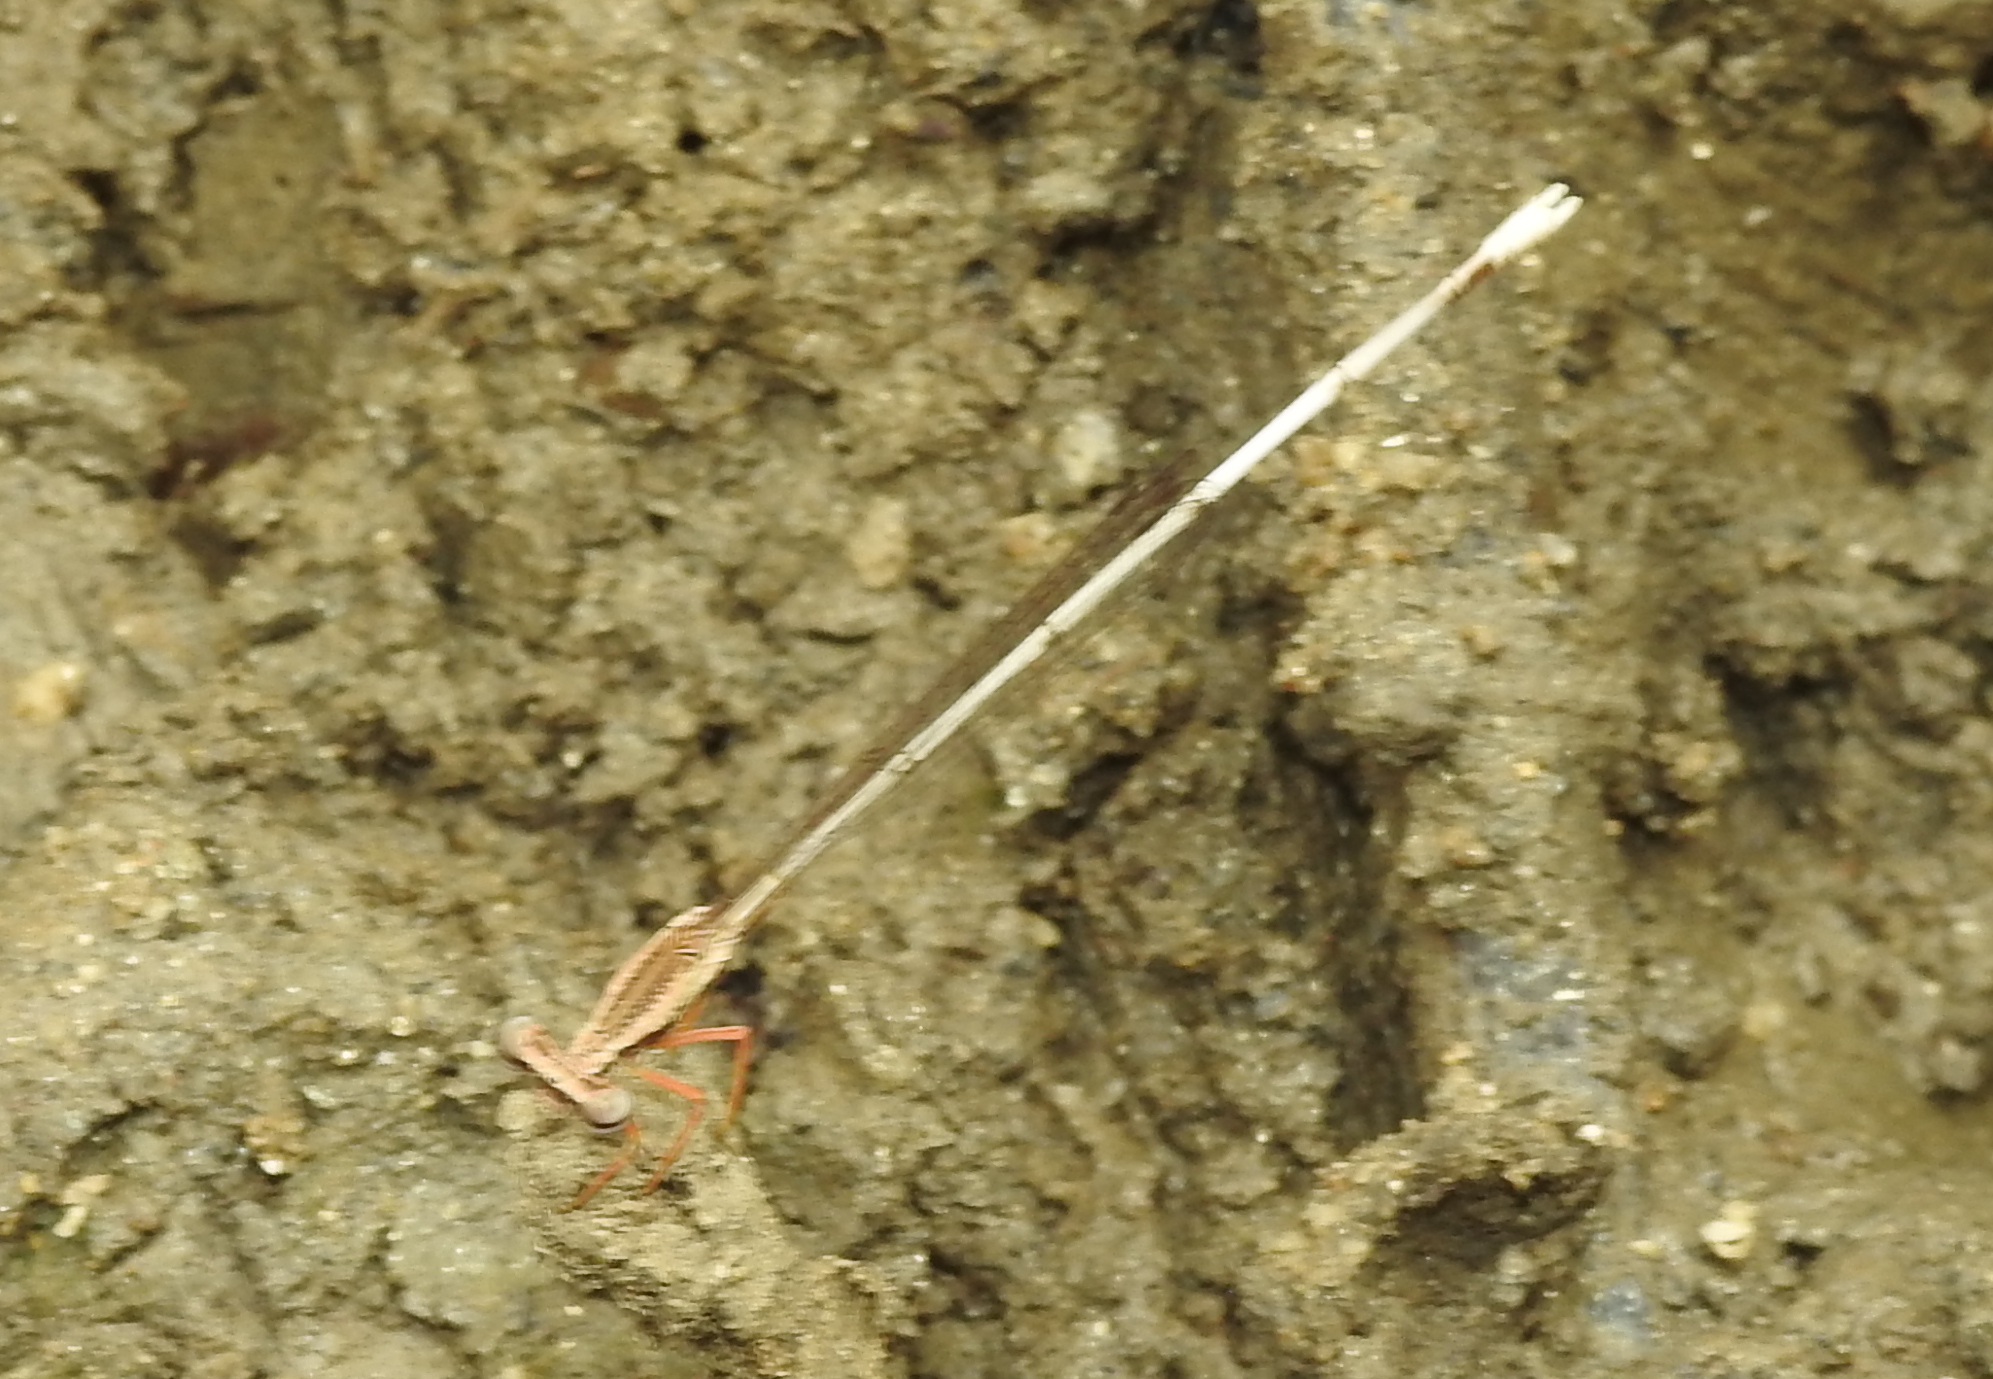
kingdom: Animalia
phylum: Arthropoda
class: Insecta
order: Odonata
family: Platycnemididae
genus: Copera
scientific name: Copera marginipes
